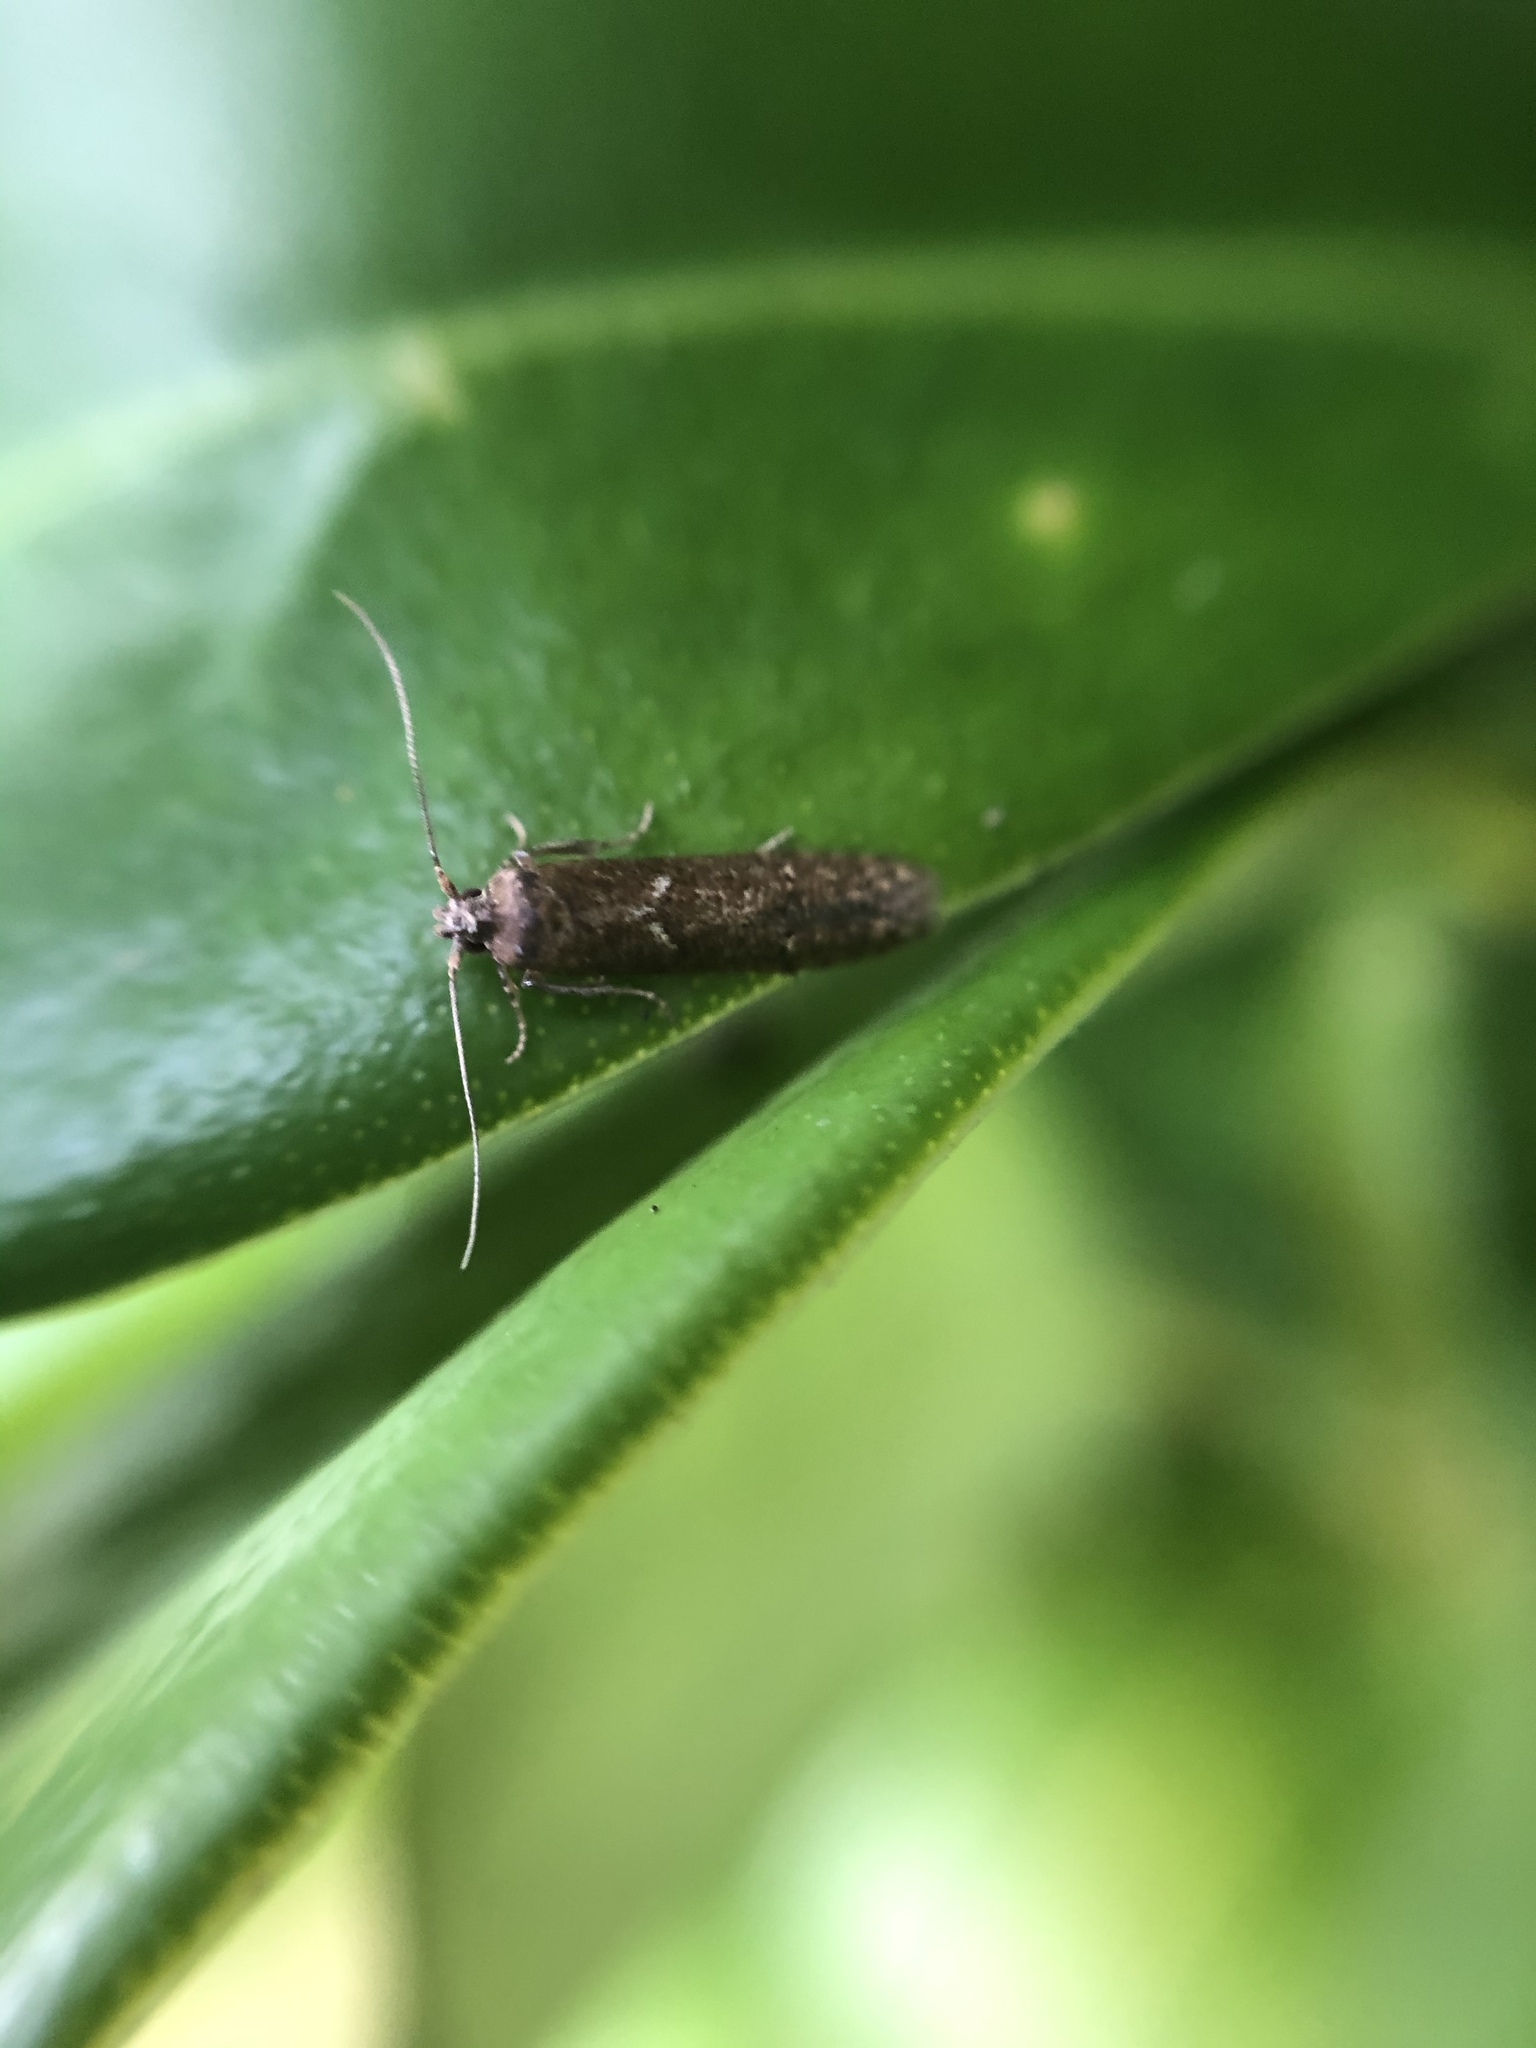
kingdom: Animalia
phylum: Arthropoda
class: Insecta
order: Lepidoptera
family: Blastobasidae
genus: Blastobasis
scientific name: Blastobasis adustella
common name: Dingy dowd
